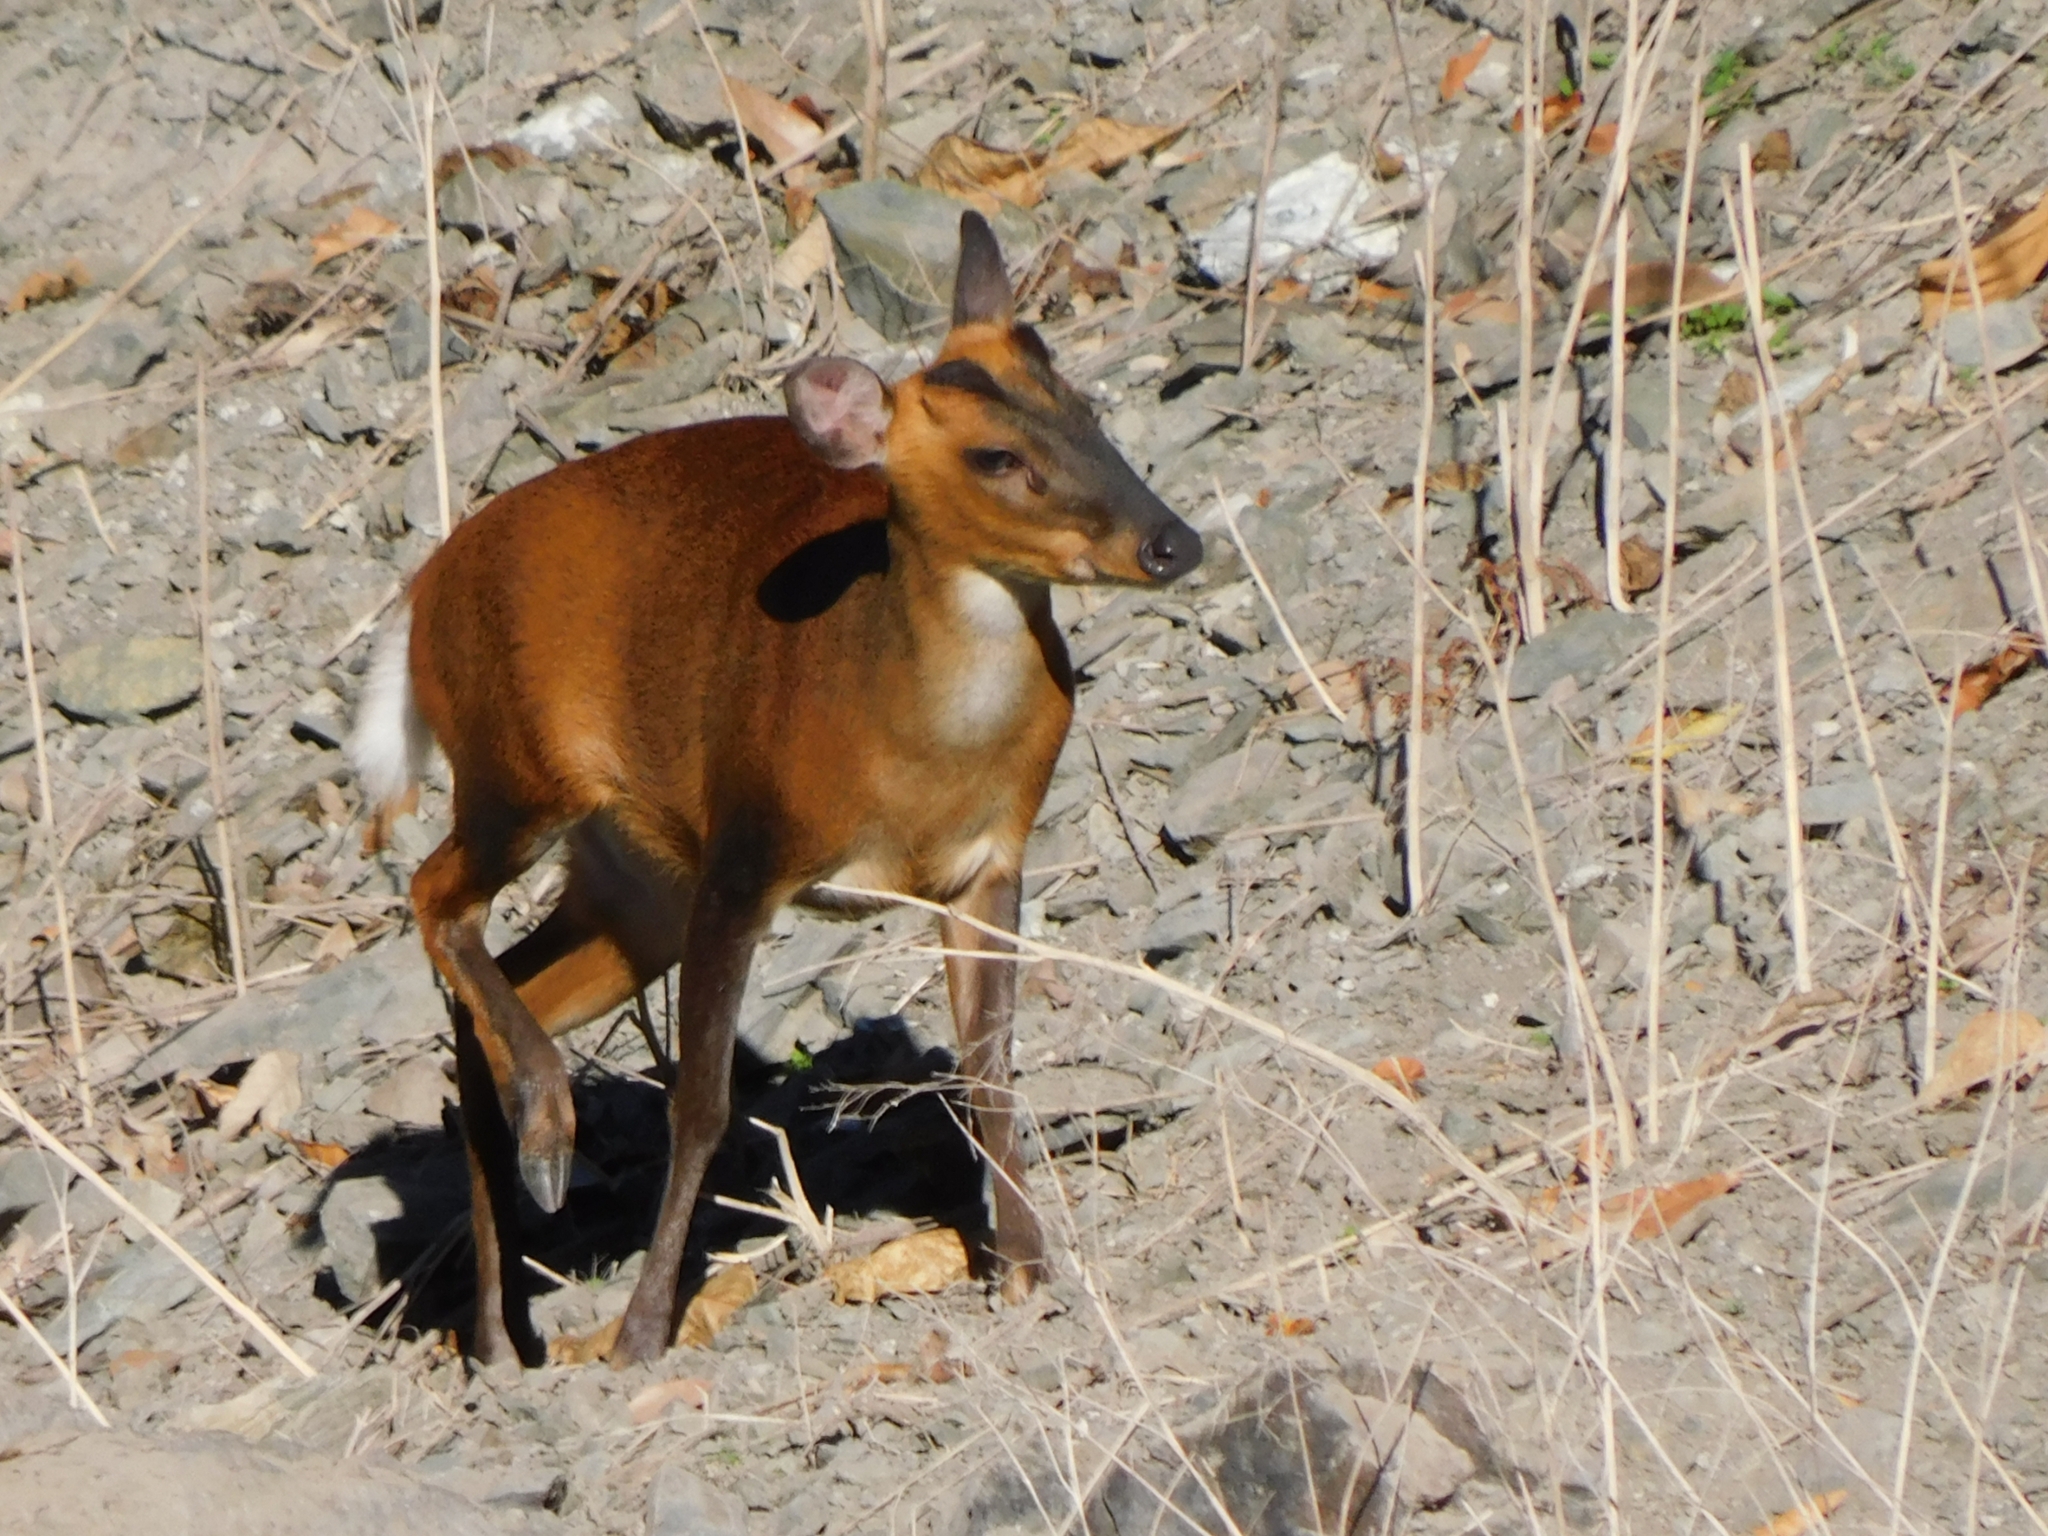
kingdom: Animalia
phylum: Chordata
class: Mammalia
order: Artiodactyla
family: Cervidae
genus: Muntiacus
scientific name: Muntiacus muntjak
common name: Indian muntjac
